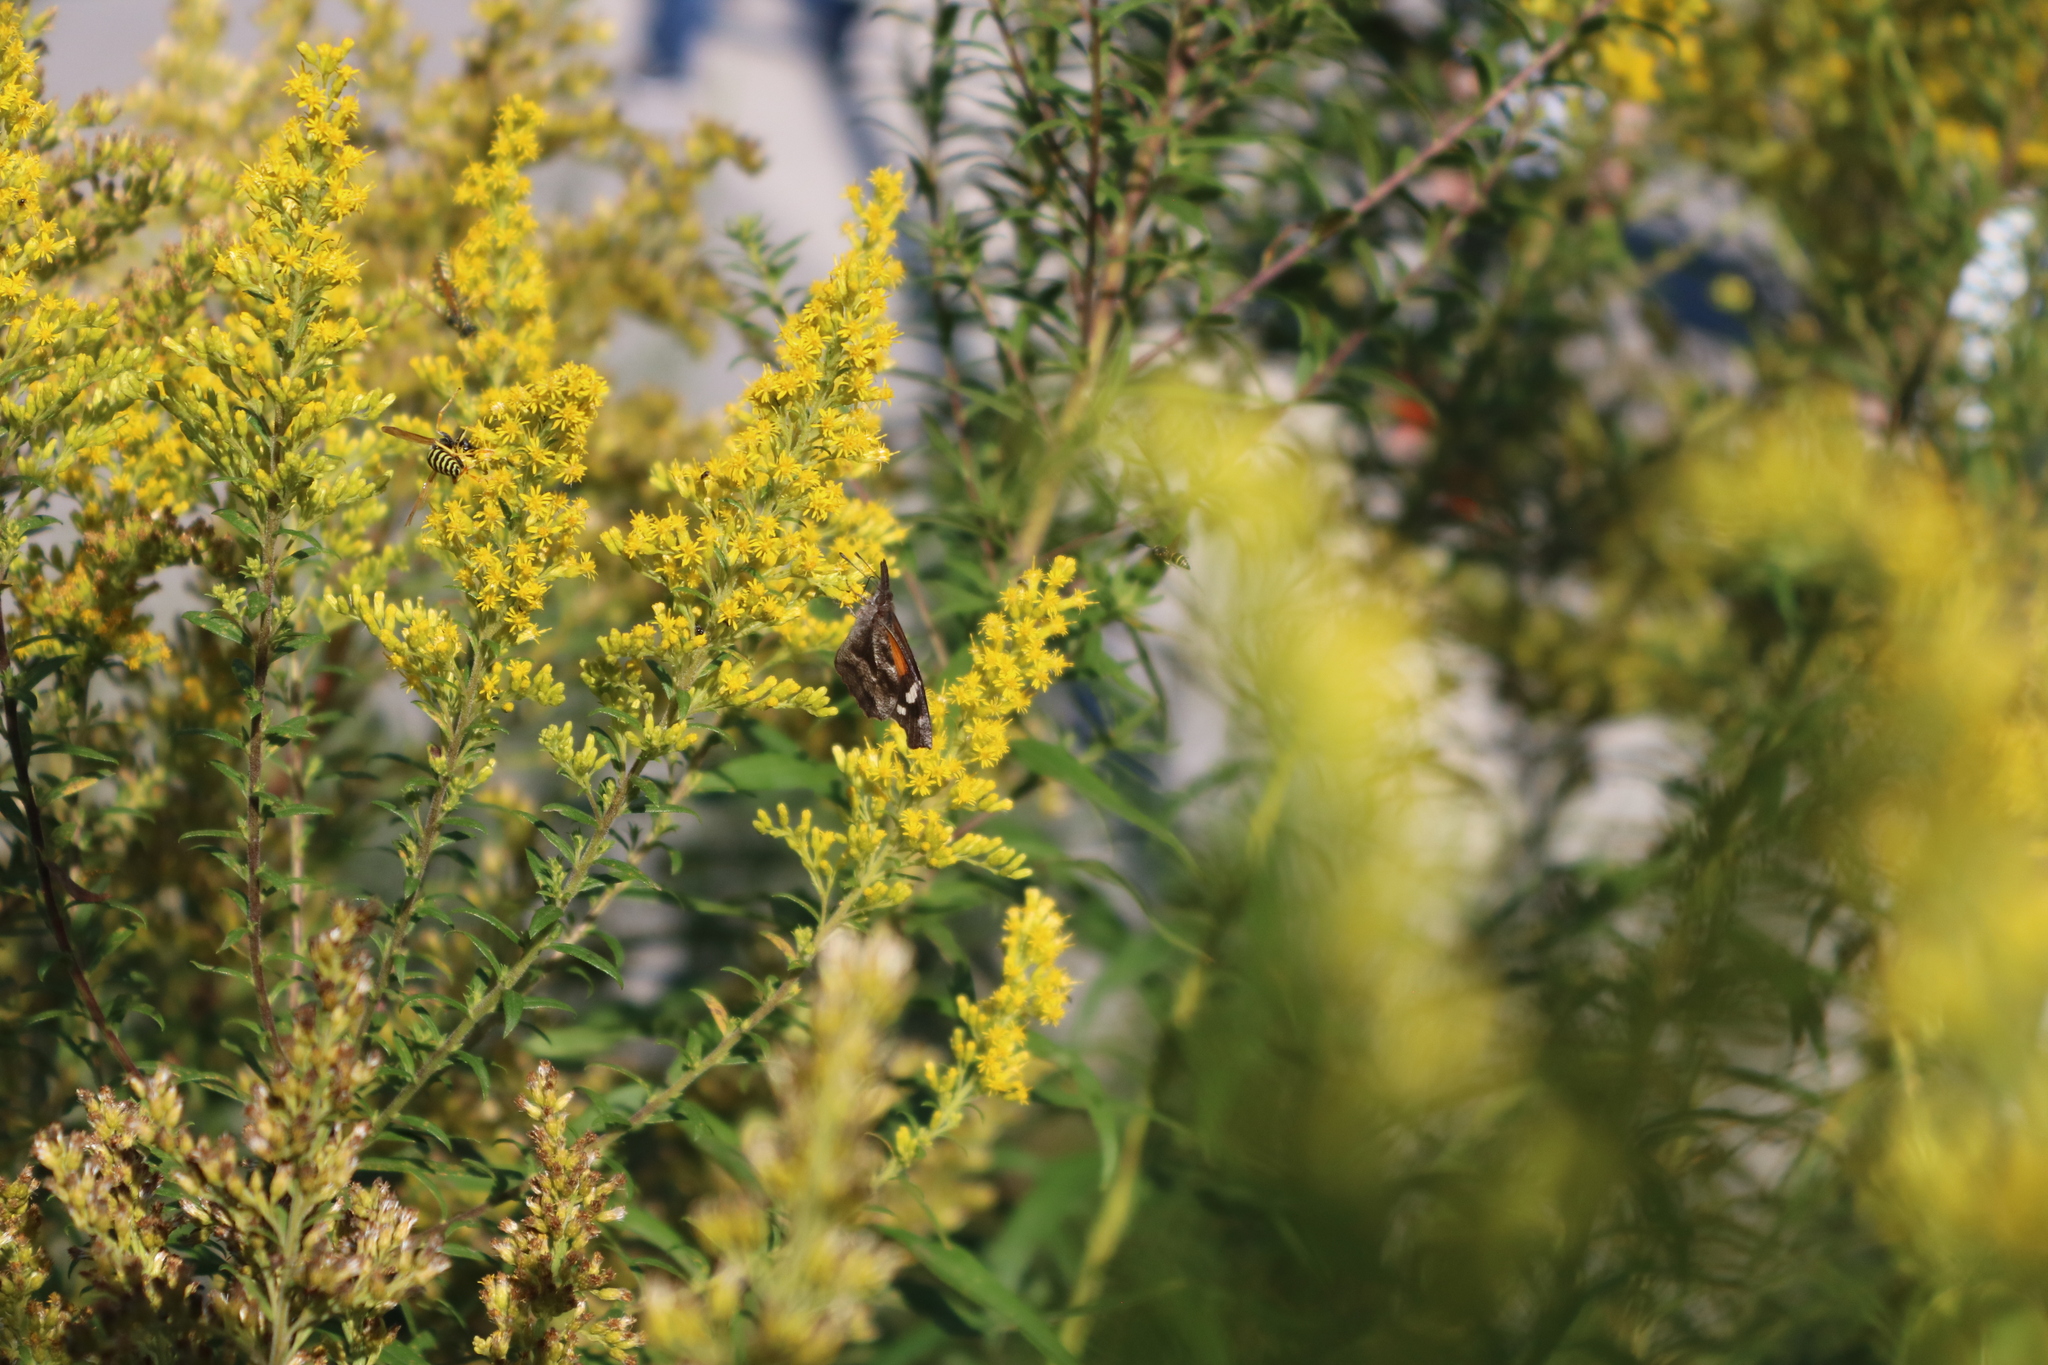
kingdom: Animalia
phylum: Arthropoda
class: Insecta
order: Lepidoptera
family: Nymphalidae
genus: Libytheana
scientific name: Libytheana carinenta
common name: American snout
